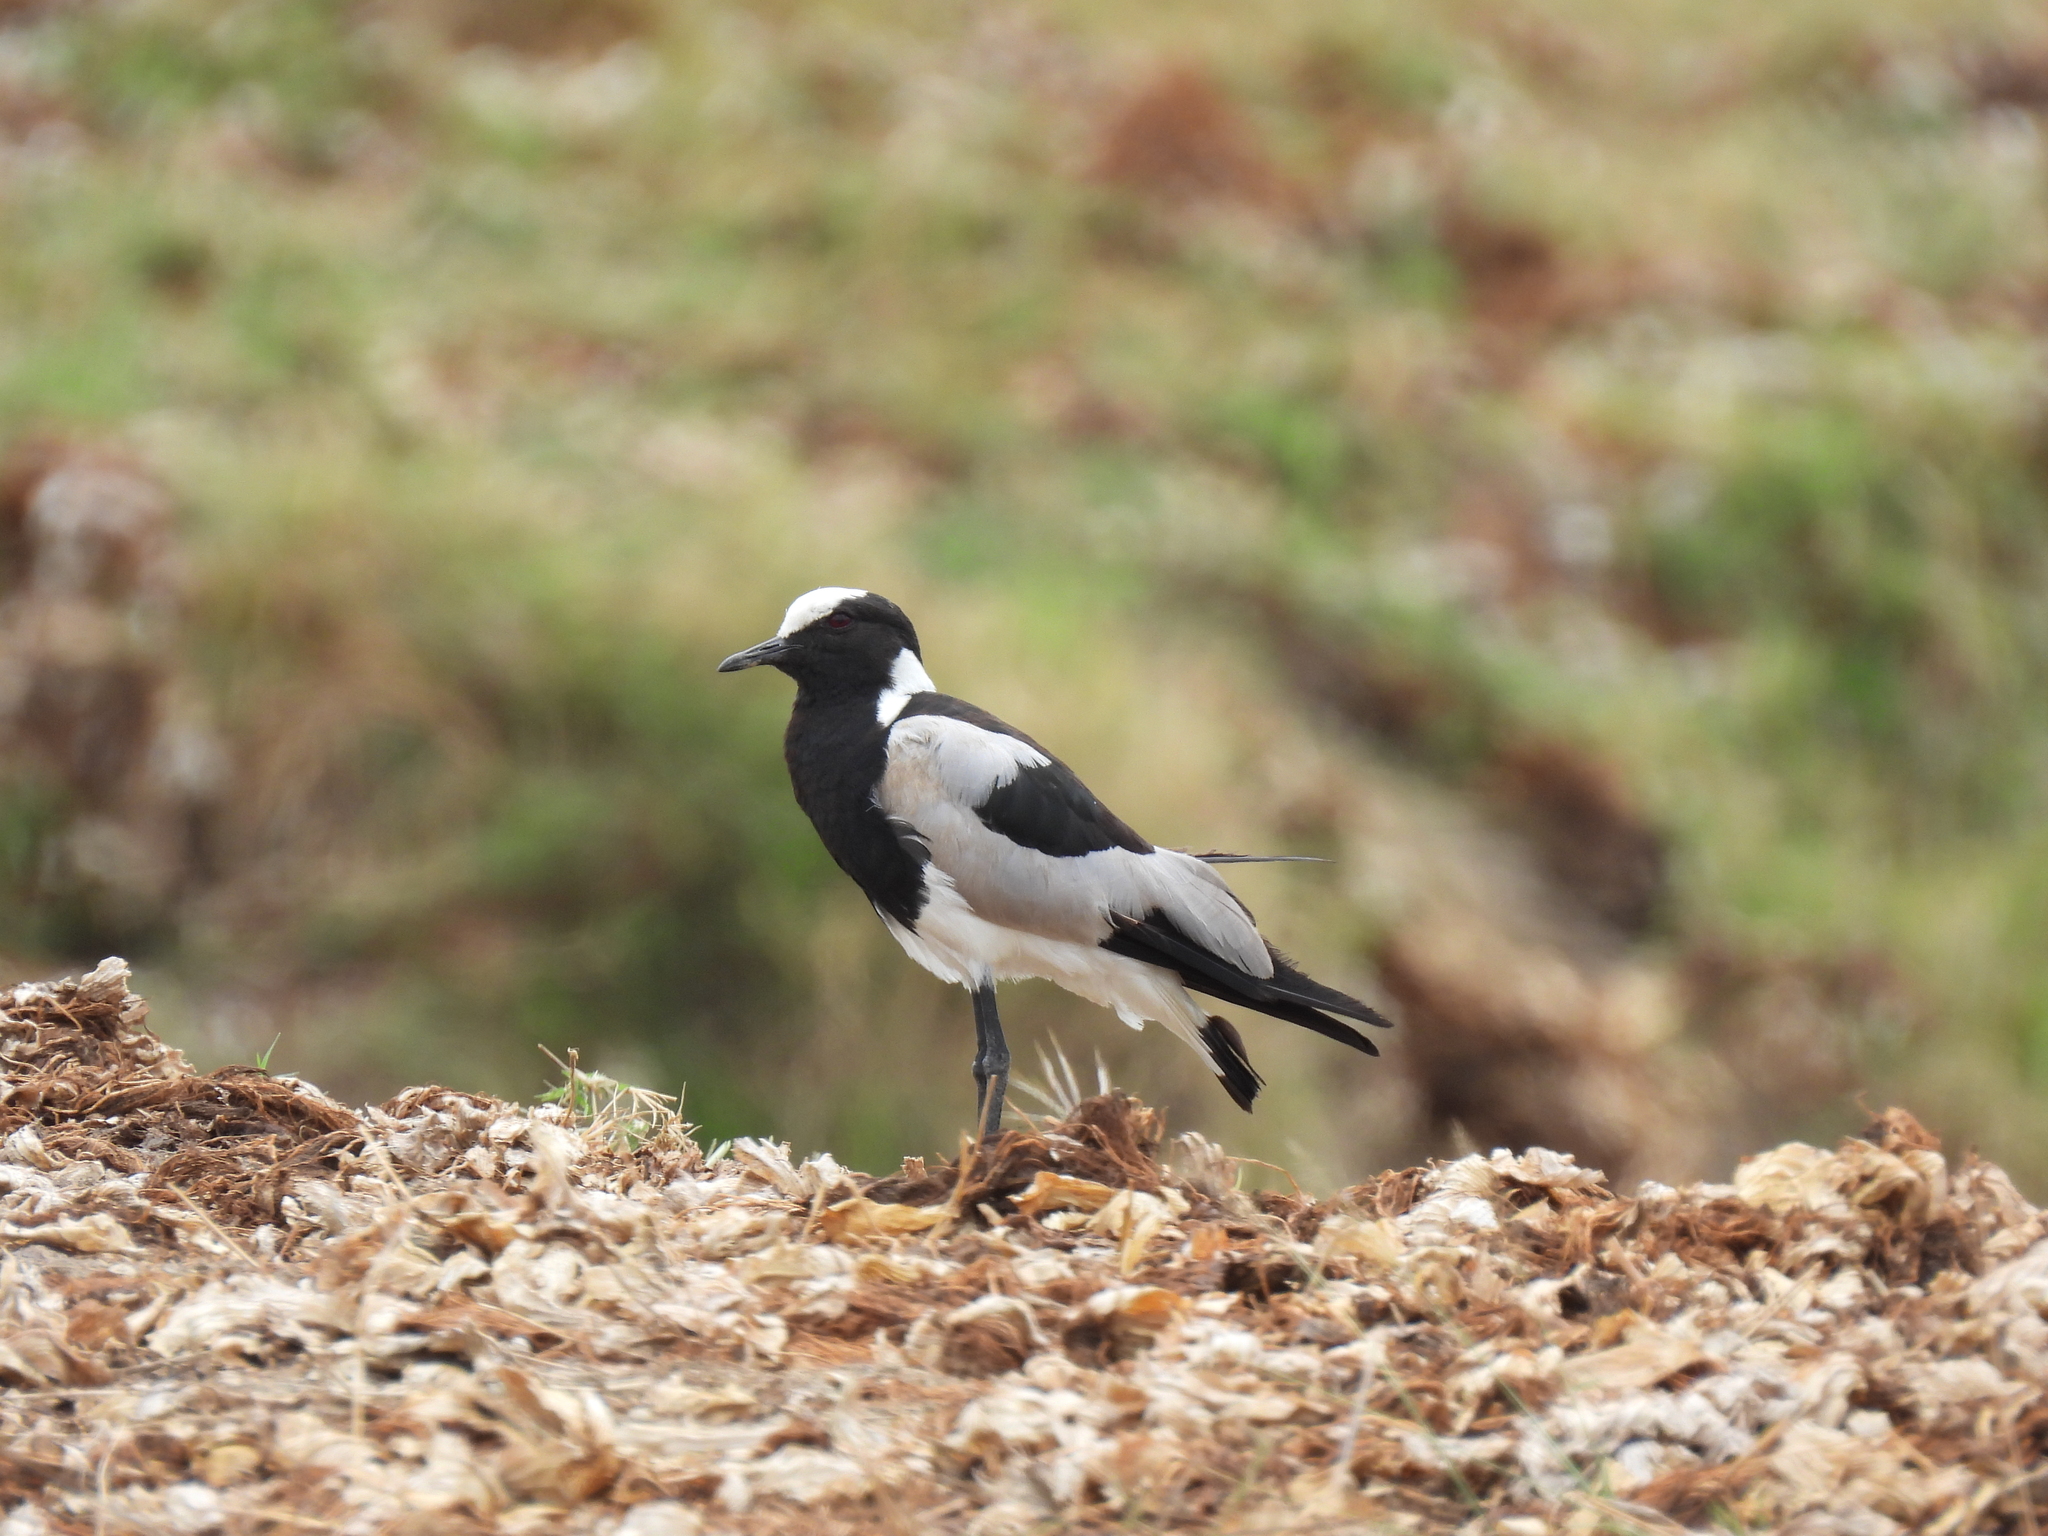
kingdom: Animalia
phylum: Chordata
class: Aves
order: Charadriiformes
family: Charadriidae
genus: Vanellus
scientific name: Vanellus armatus
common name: Blacksmith lapwing
